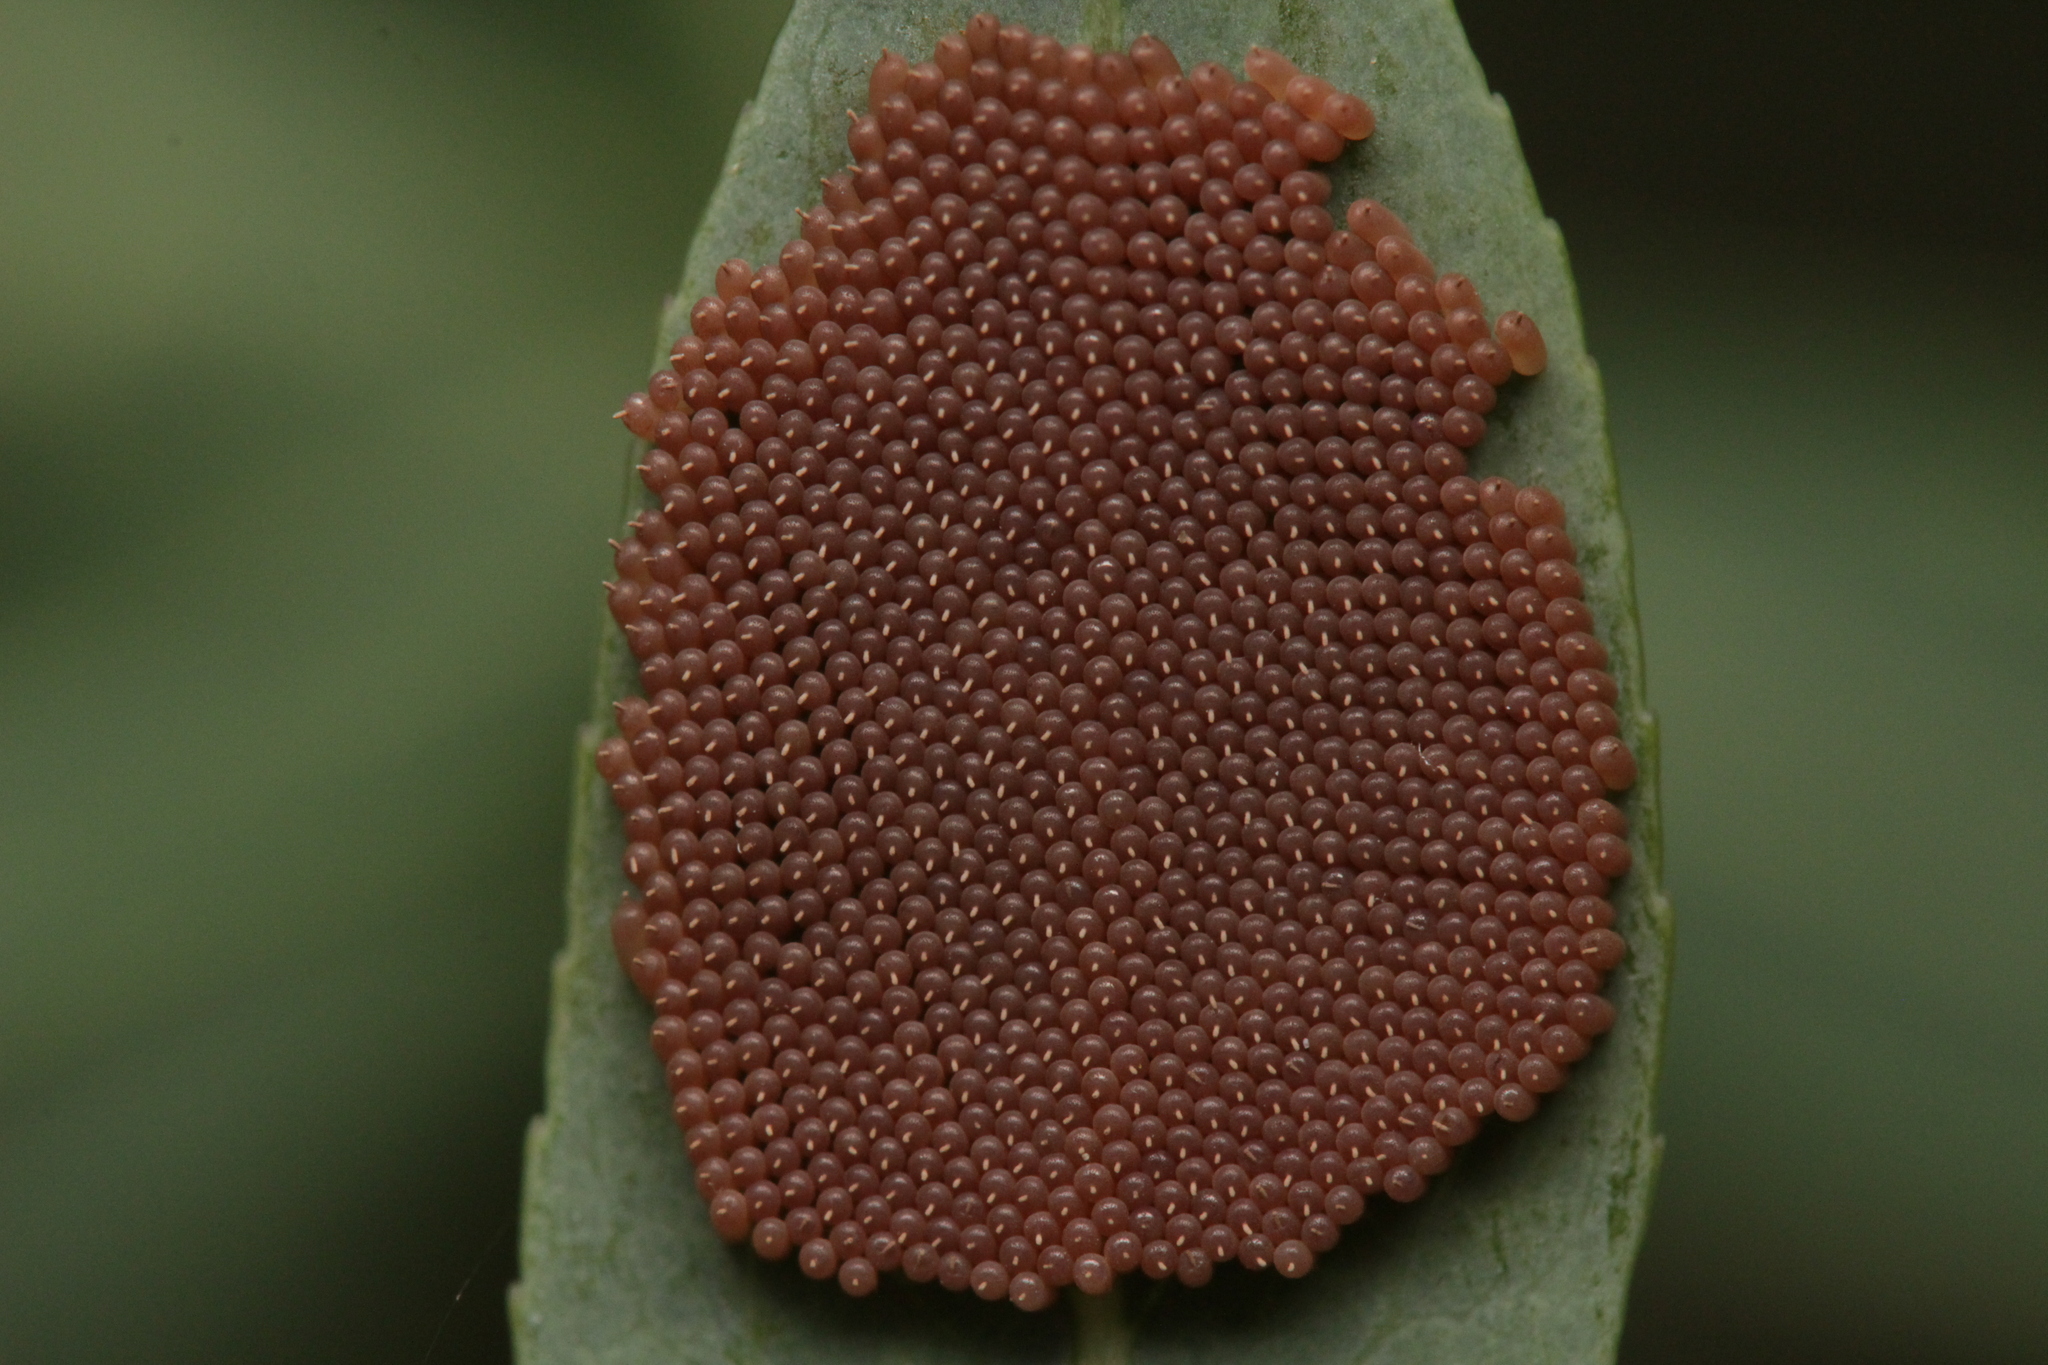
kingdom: Animalia
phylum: Arthropoda
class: Insecta
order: Megaloptera
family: Sialidae
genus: Sialis
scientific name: Sialis
